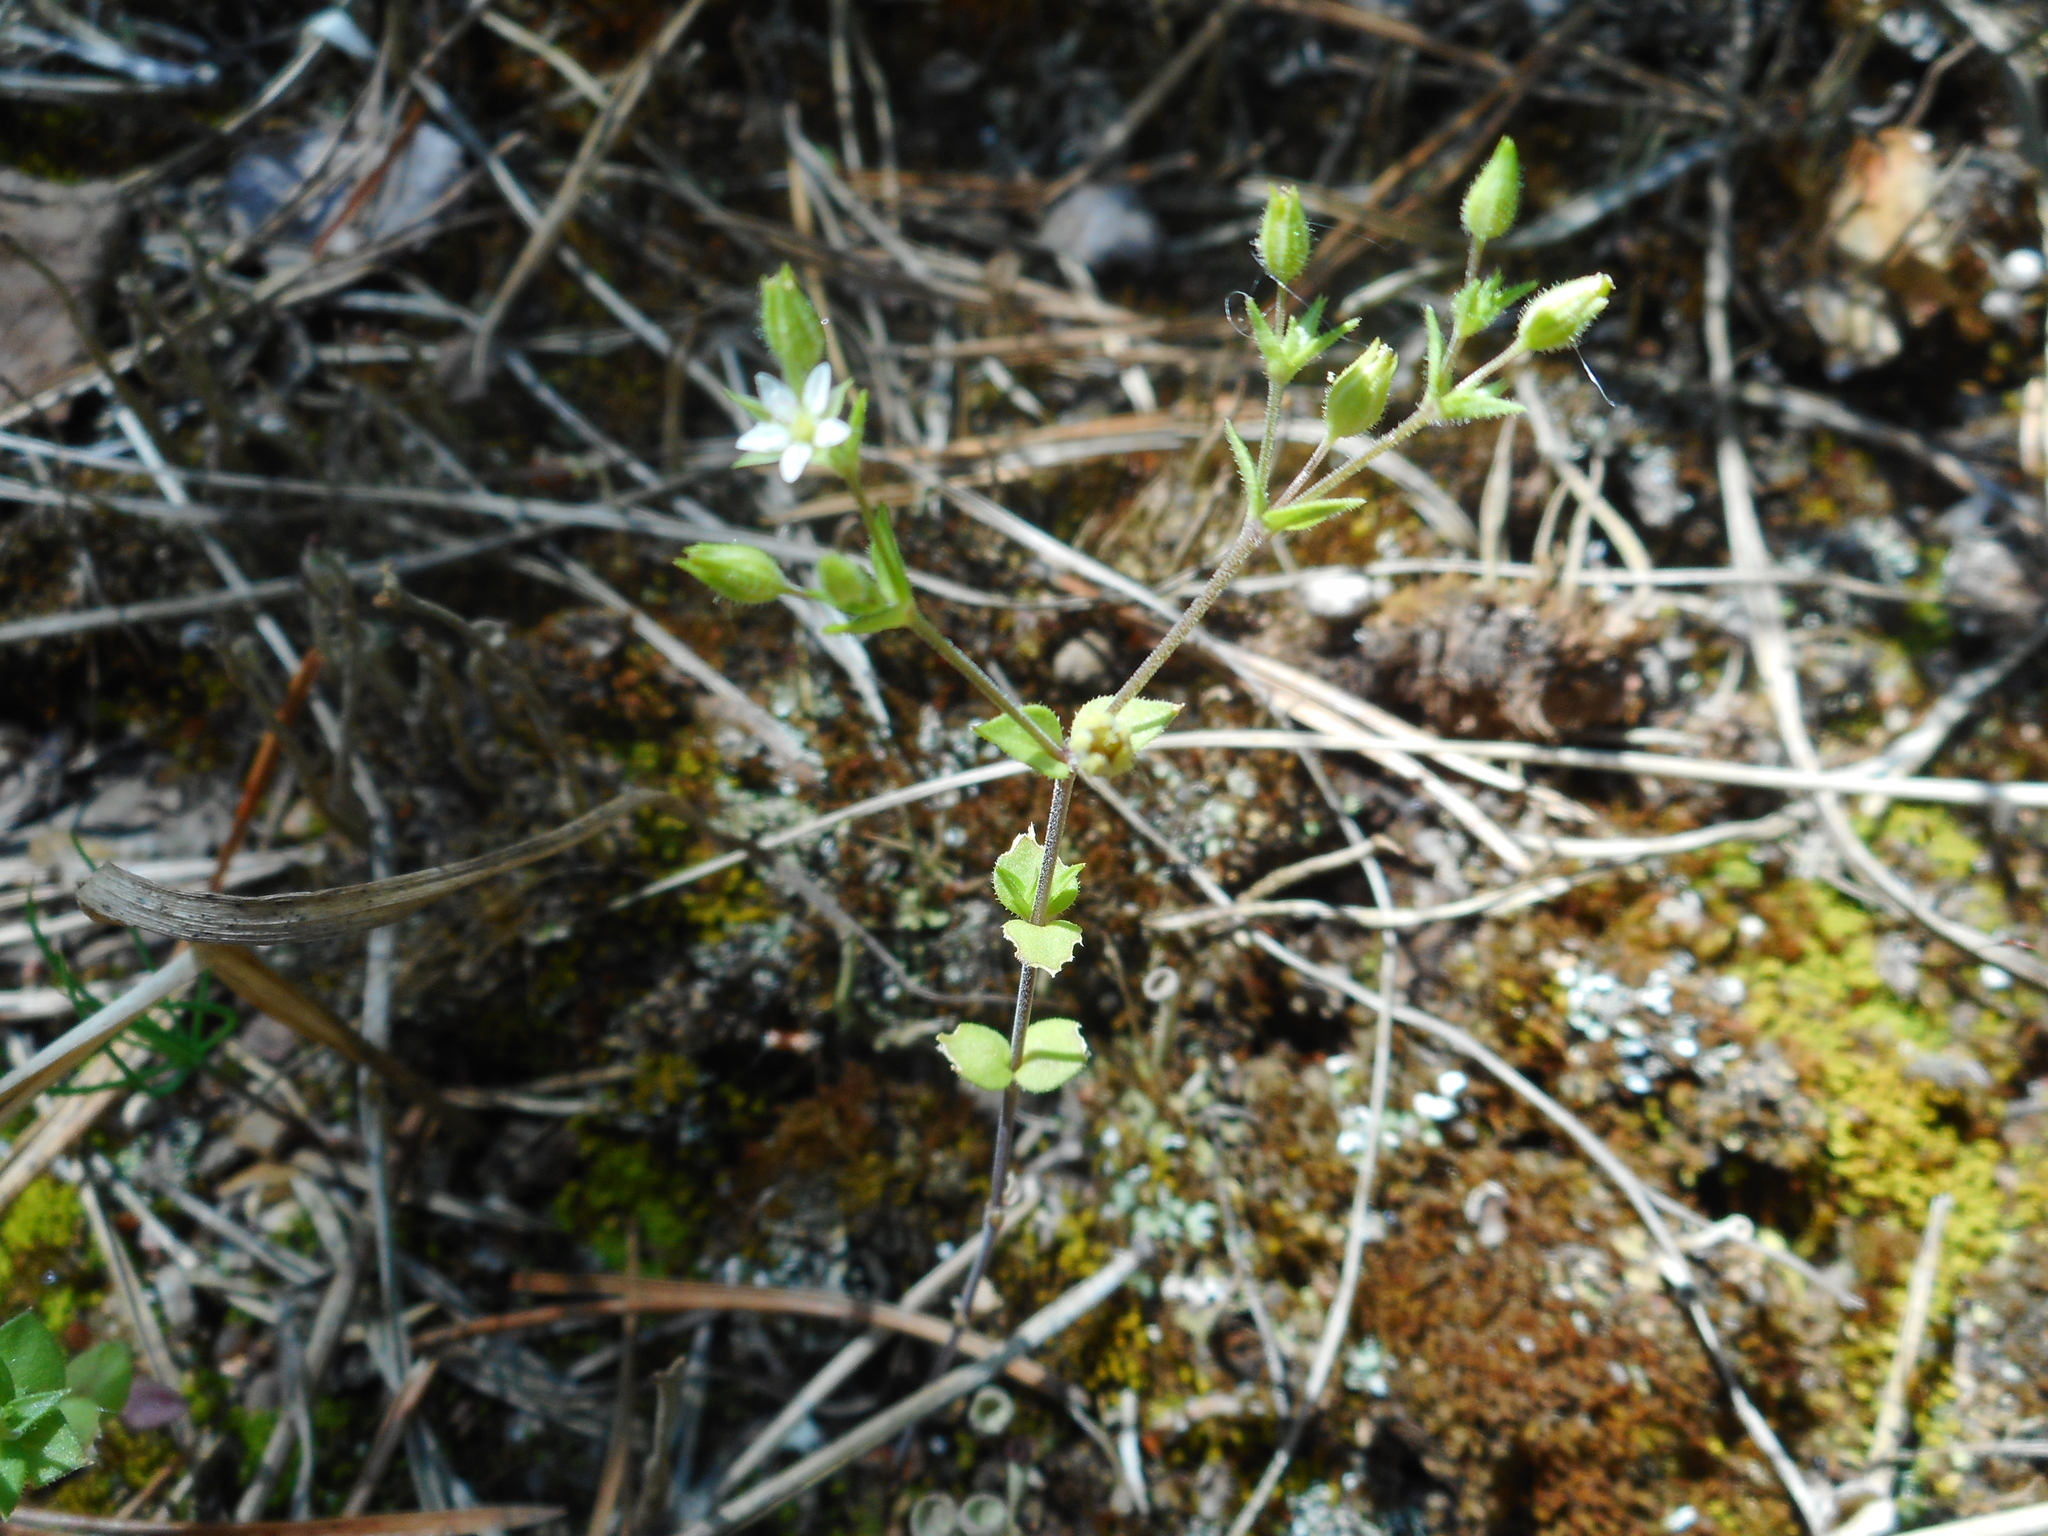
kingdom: Plantae
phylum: Tracheophyta
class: Magnoliopsida
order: Caryophyllales
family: Caryophyllaceae
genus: Arenaria
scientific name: Arenaria serpyllifolia
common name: Thyme-leaved sandwort
